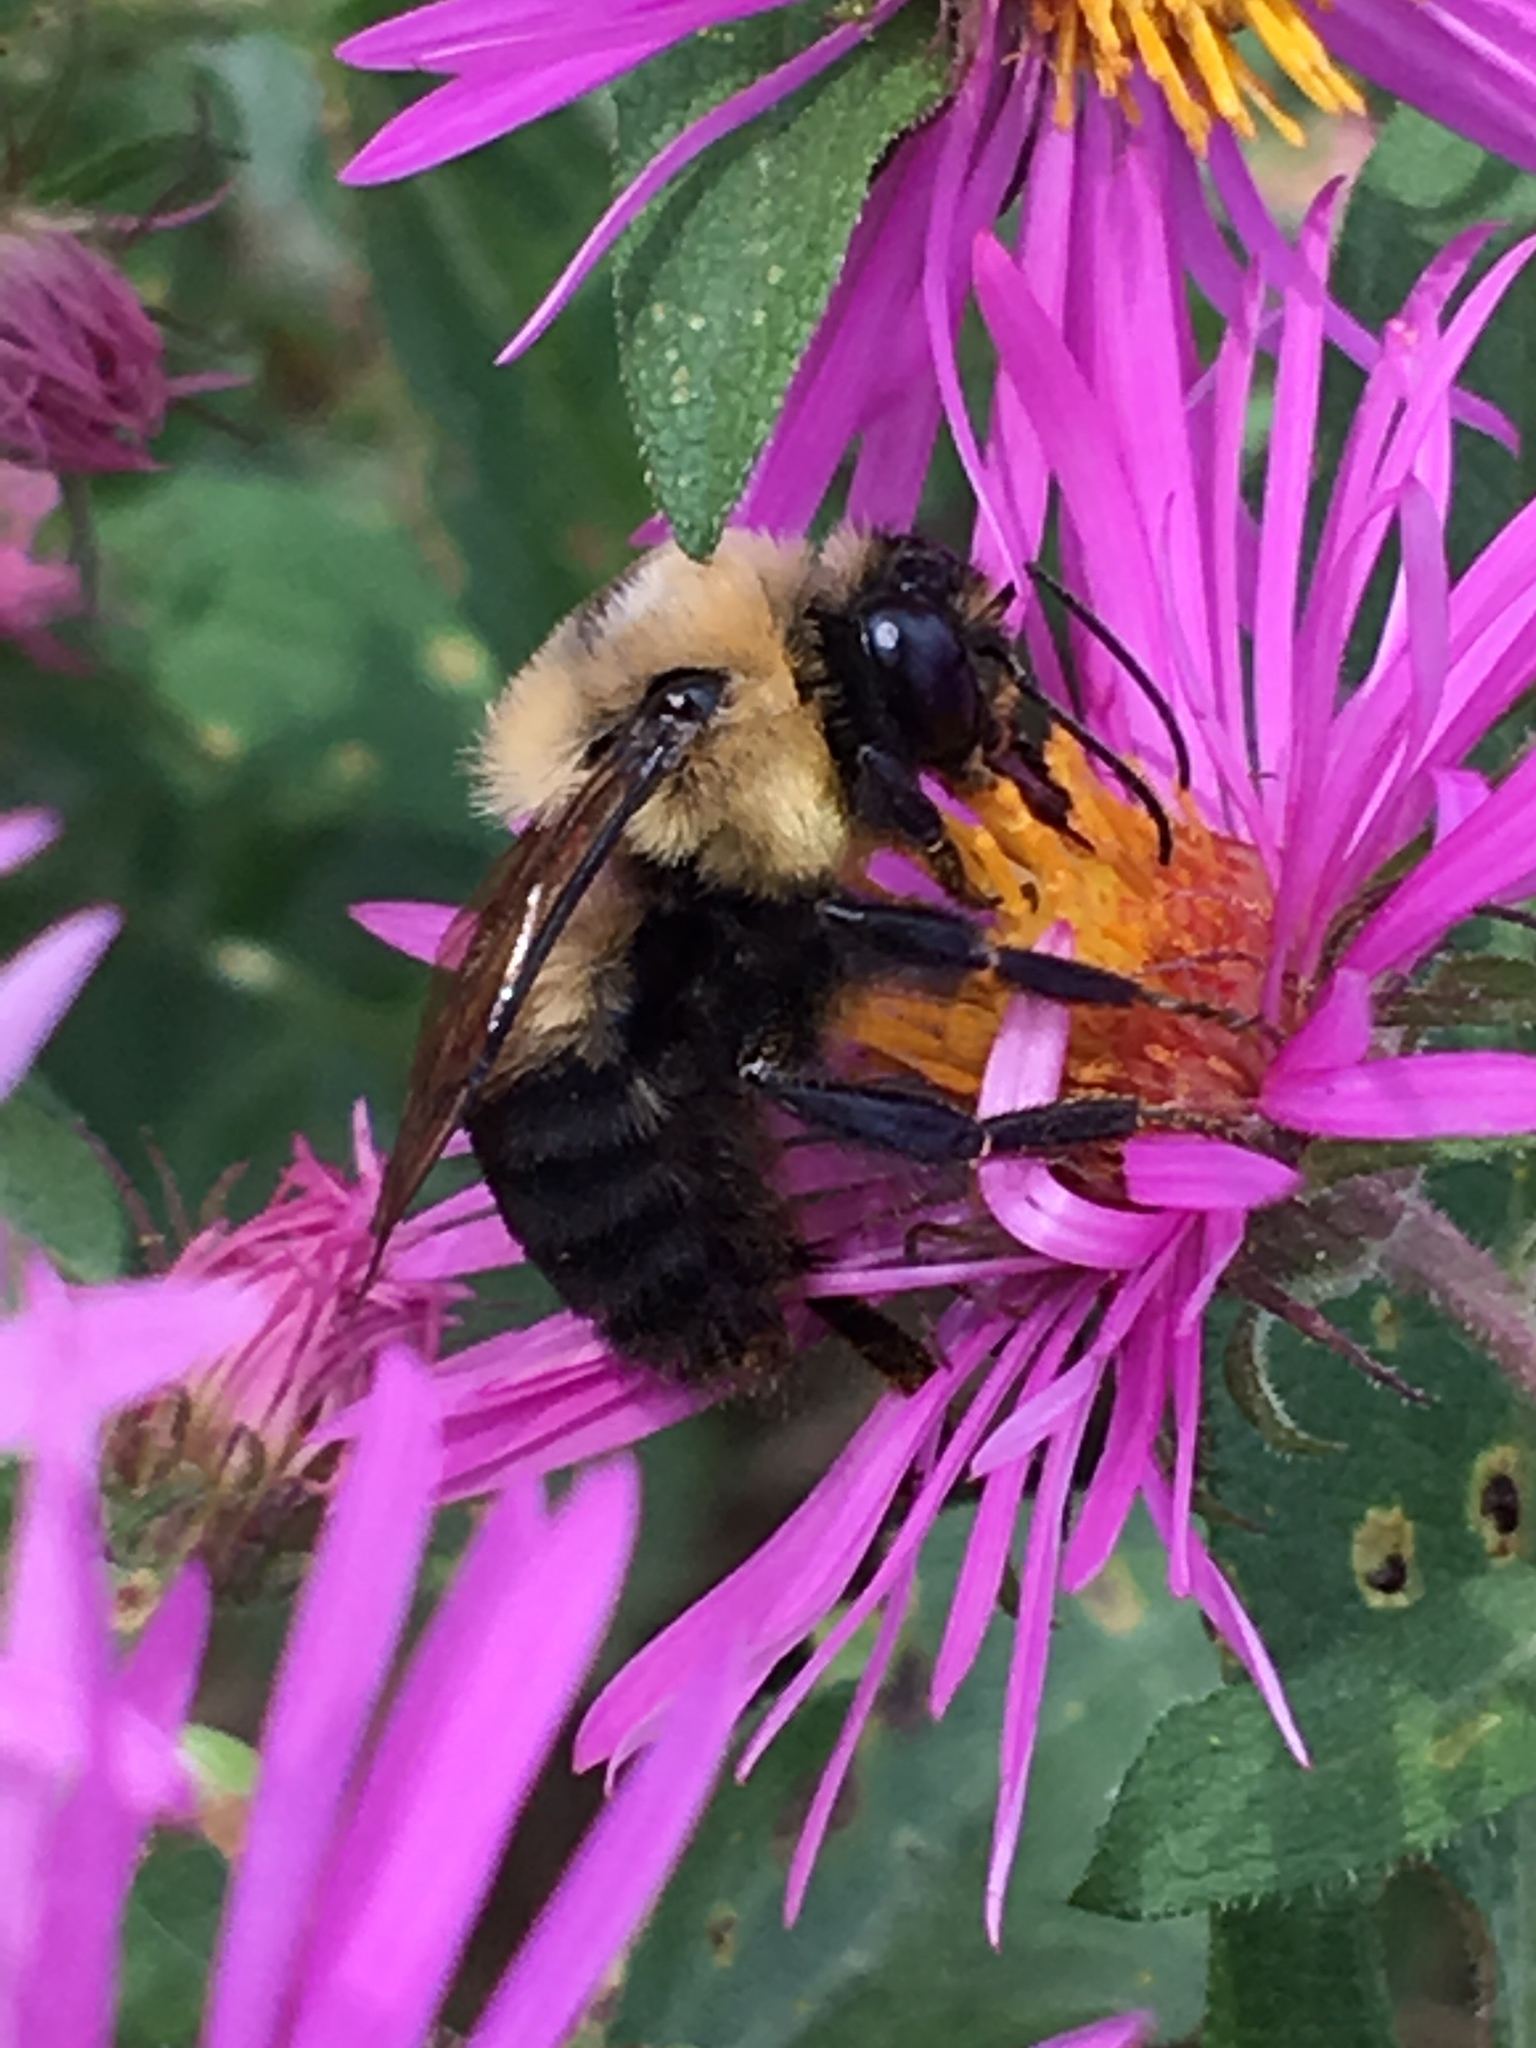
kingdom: Animalia
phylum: Arthropoda
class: Insecta
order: Hymenoptera
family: Apidae
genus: Bombus
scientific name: Bombus griseocollis
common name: Brown-belted bumble bee
